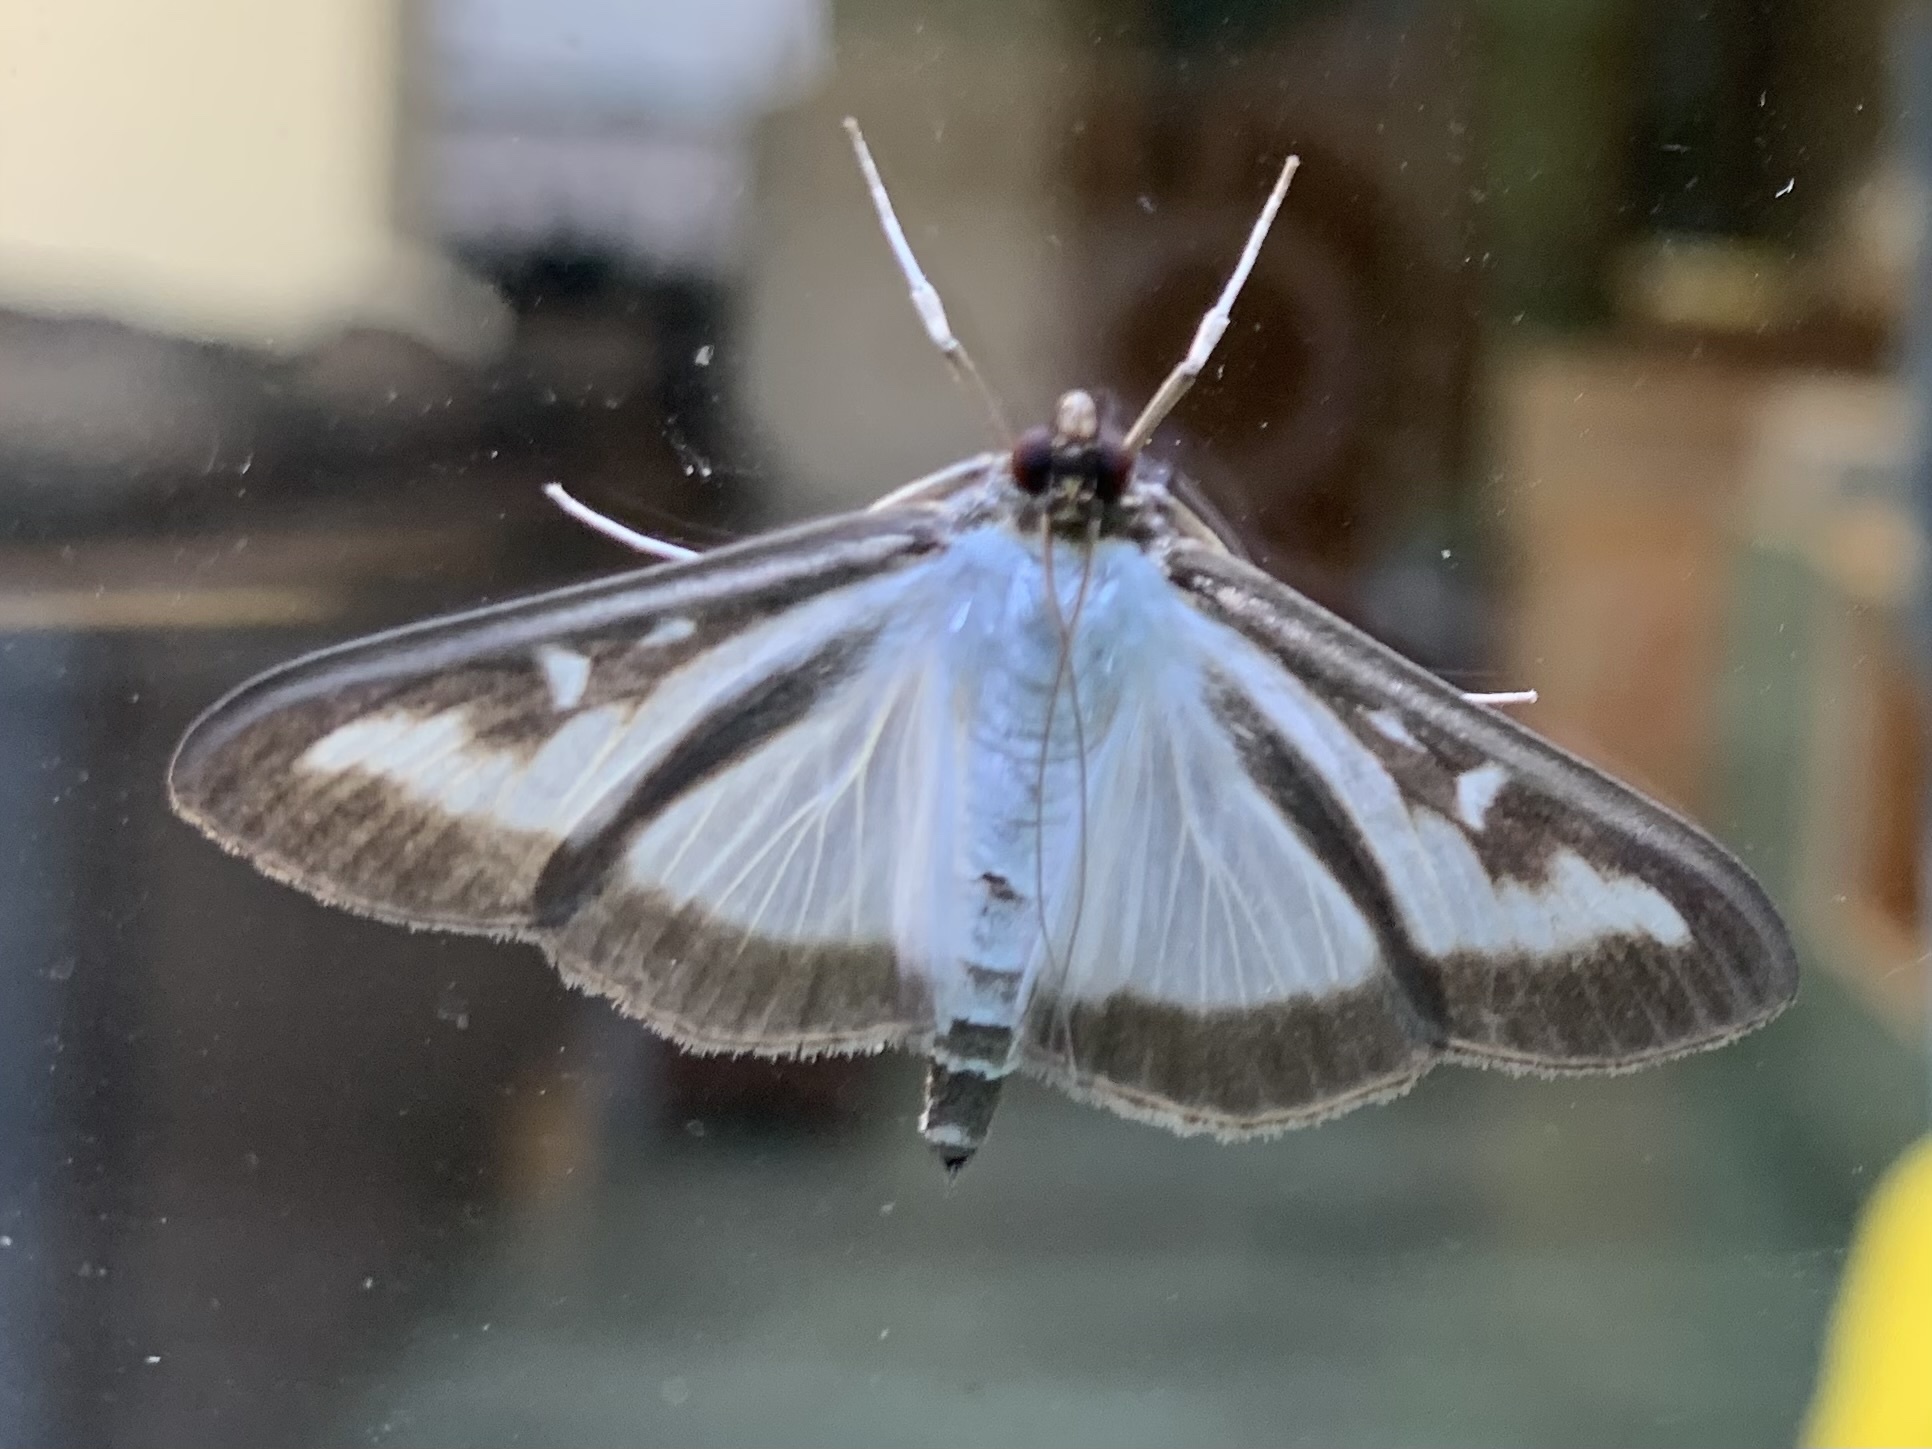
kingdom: Animalia
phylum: Arthropoda
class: Insecta
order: Lepidoptera
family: Crambidae
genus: Cydalima
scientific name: Cydalima perspectalis
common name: Box tree moth
